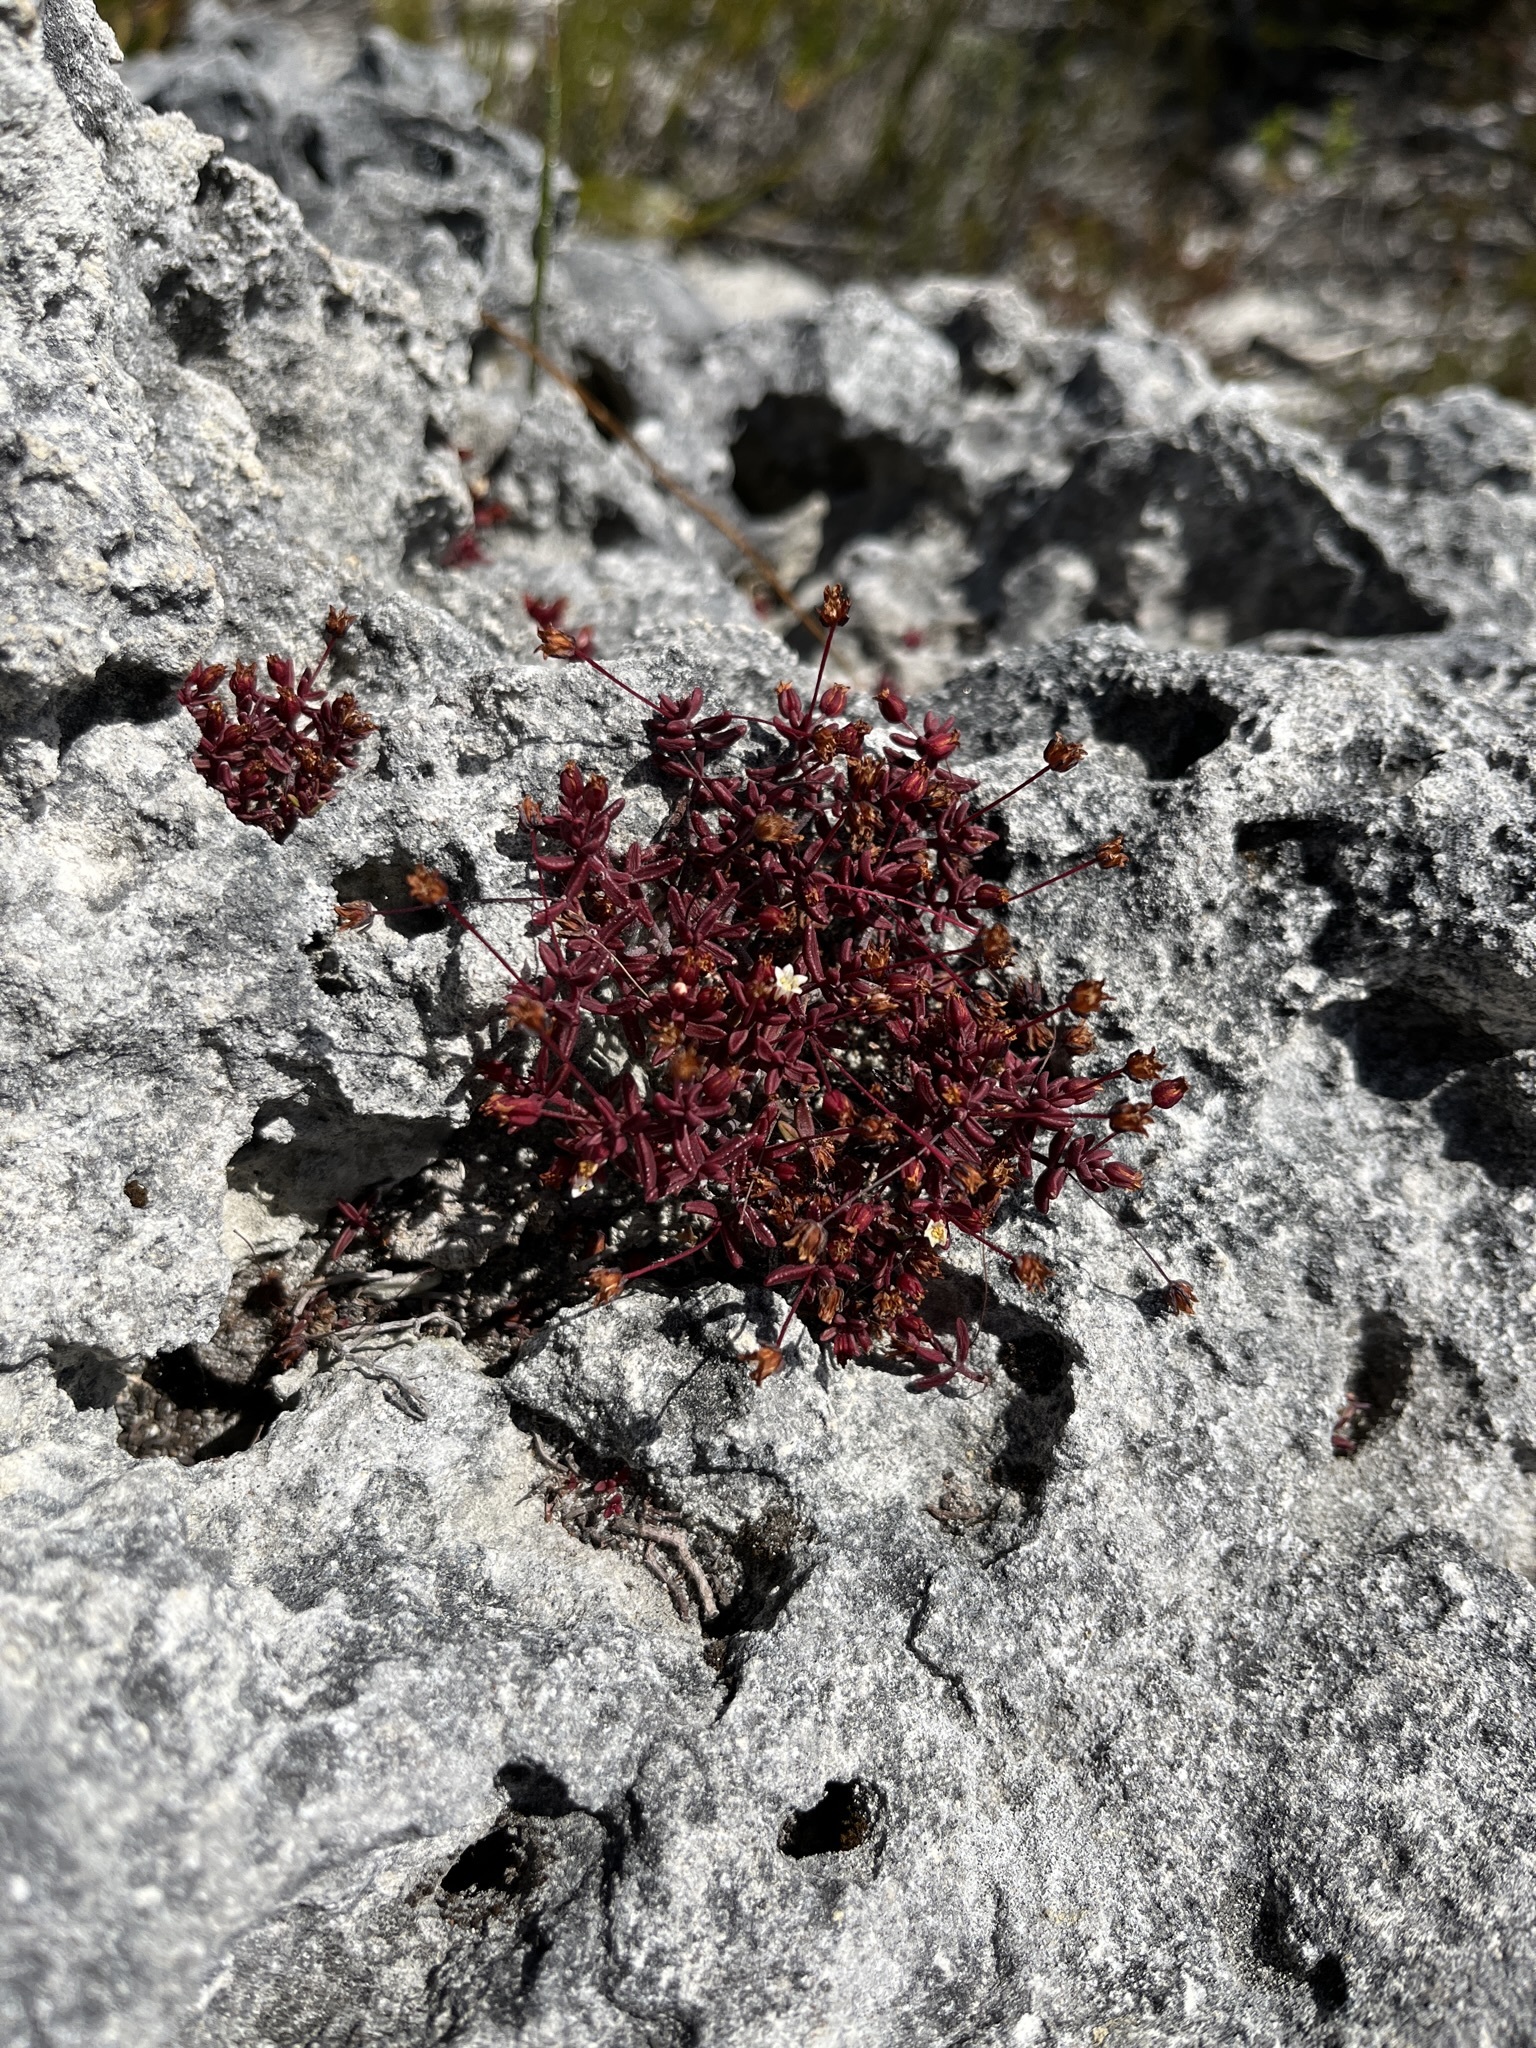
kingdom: Plantae
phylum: Tracheophyta
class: Magnoliopsida
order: Saxifragales
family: Crassulaceae
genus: Crassula
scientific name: Crassula expansa
